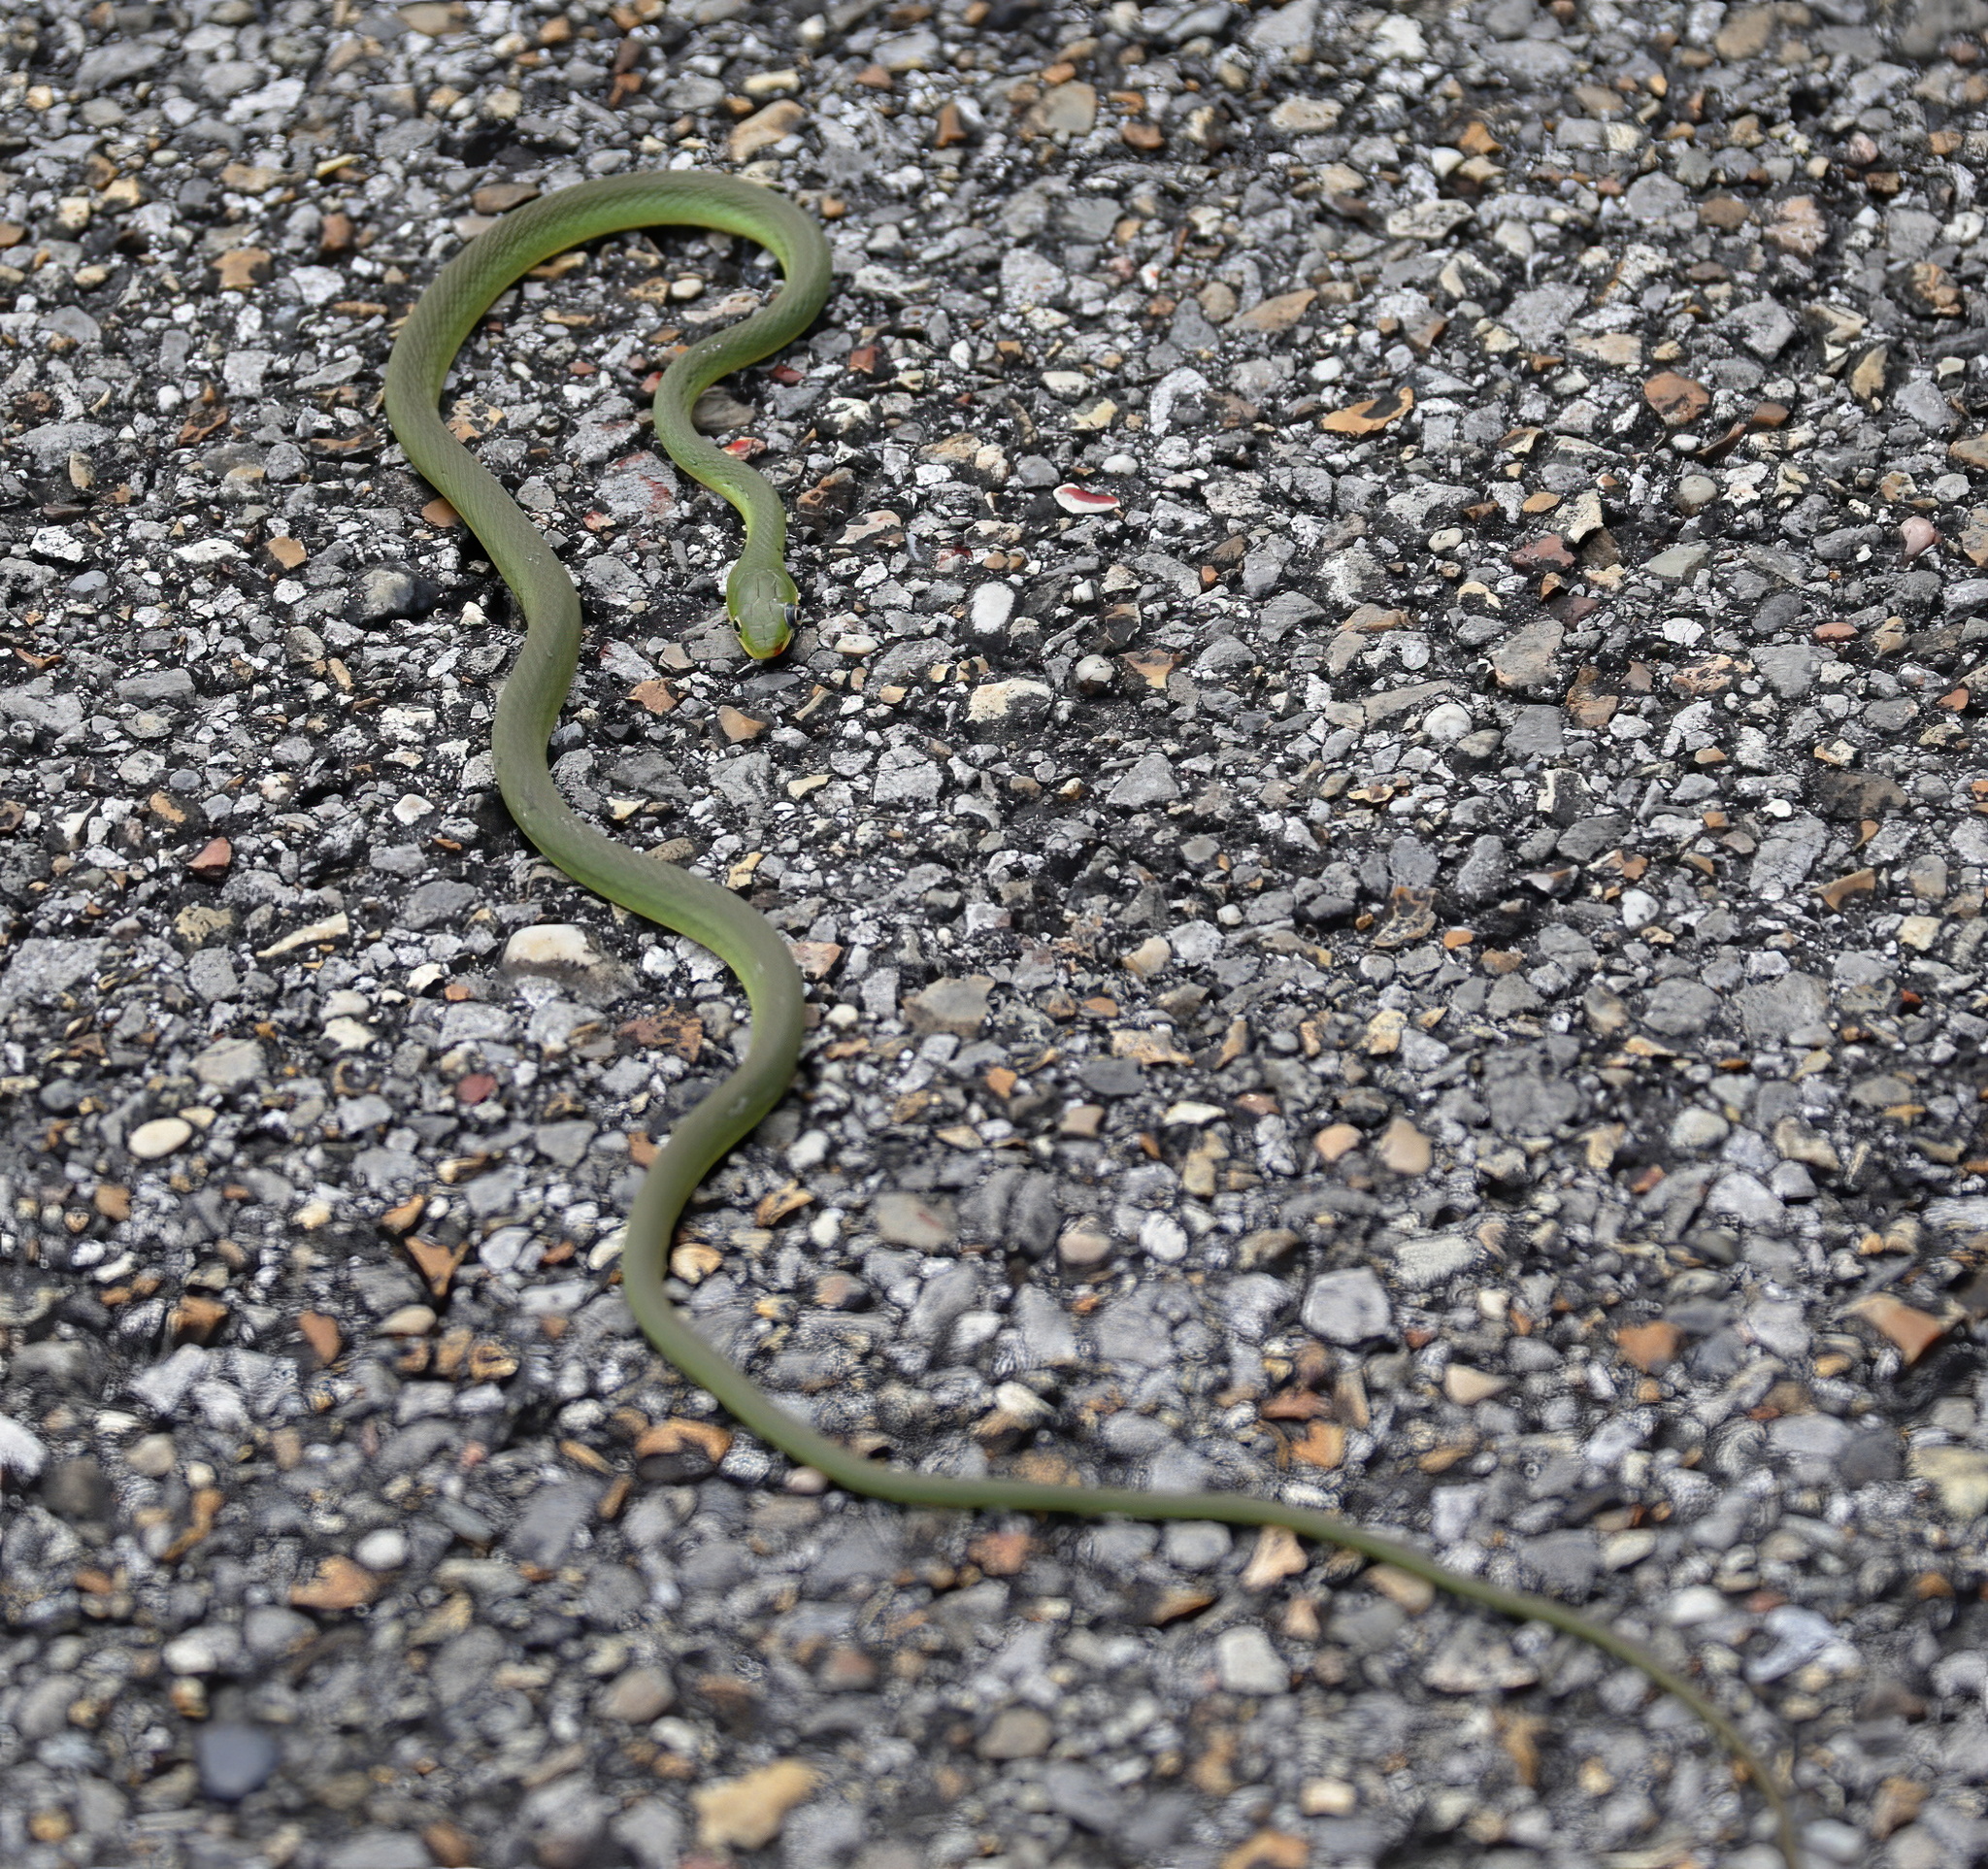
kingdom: Animalia
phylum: Chordata
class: Squamata
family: Colubridae
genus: Opheodrys
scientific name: Opheodrys aestivus
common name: Rough greensnake
